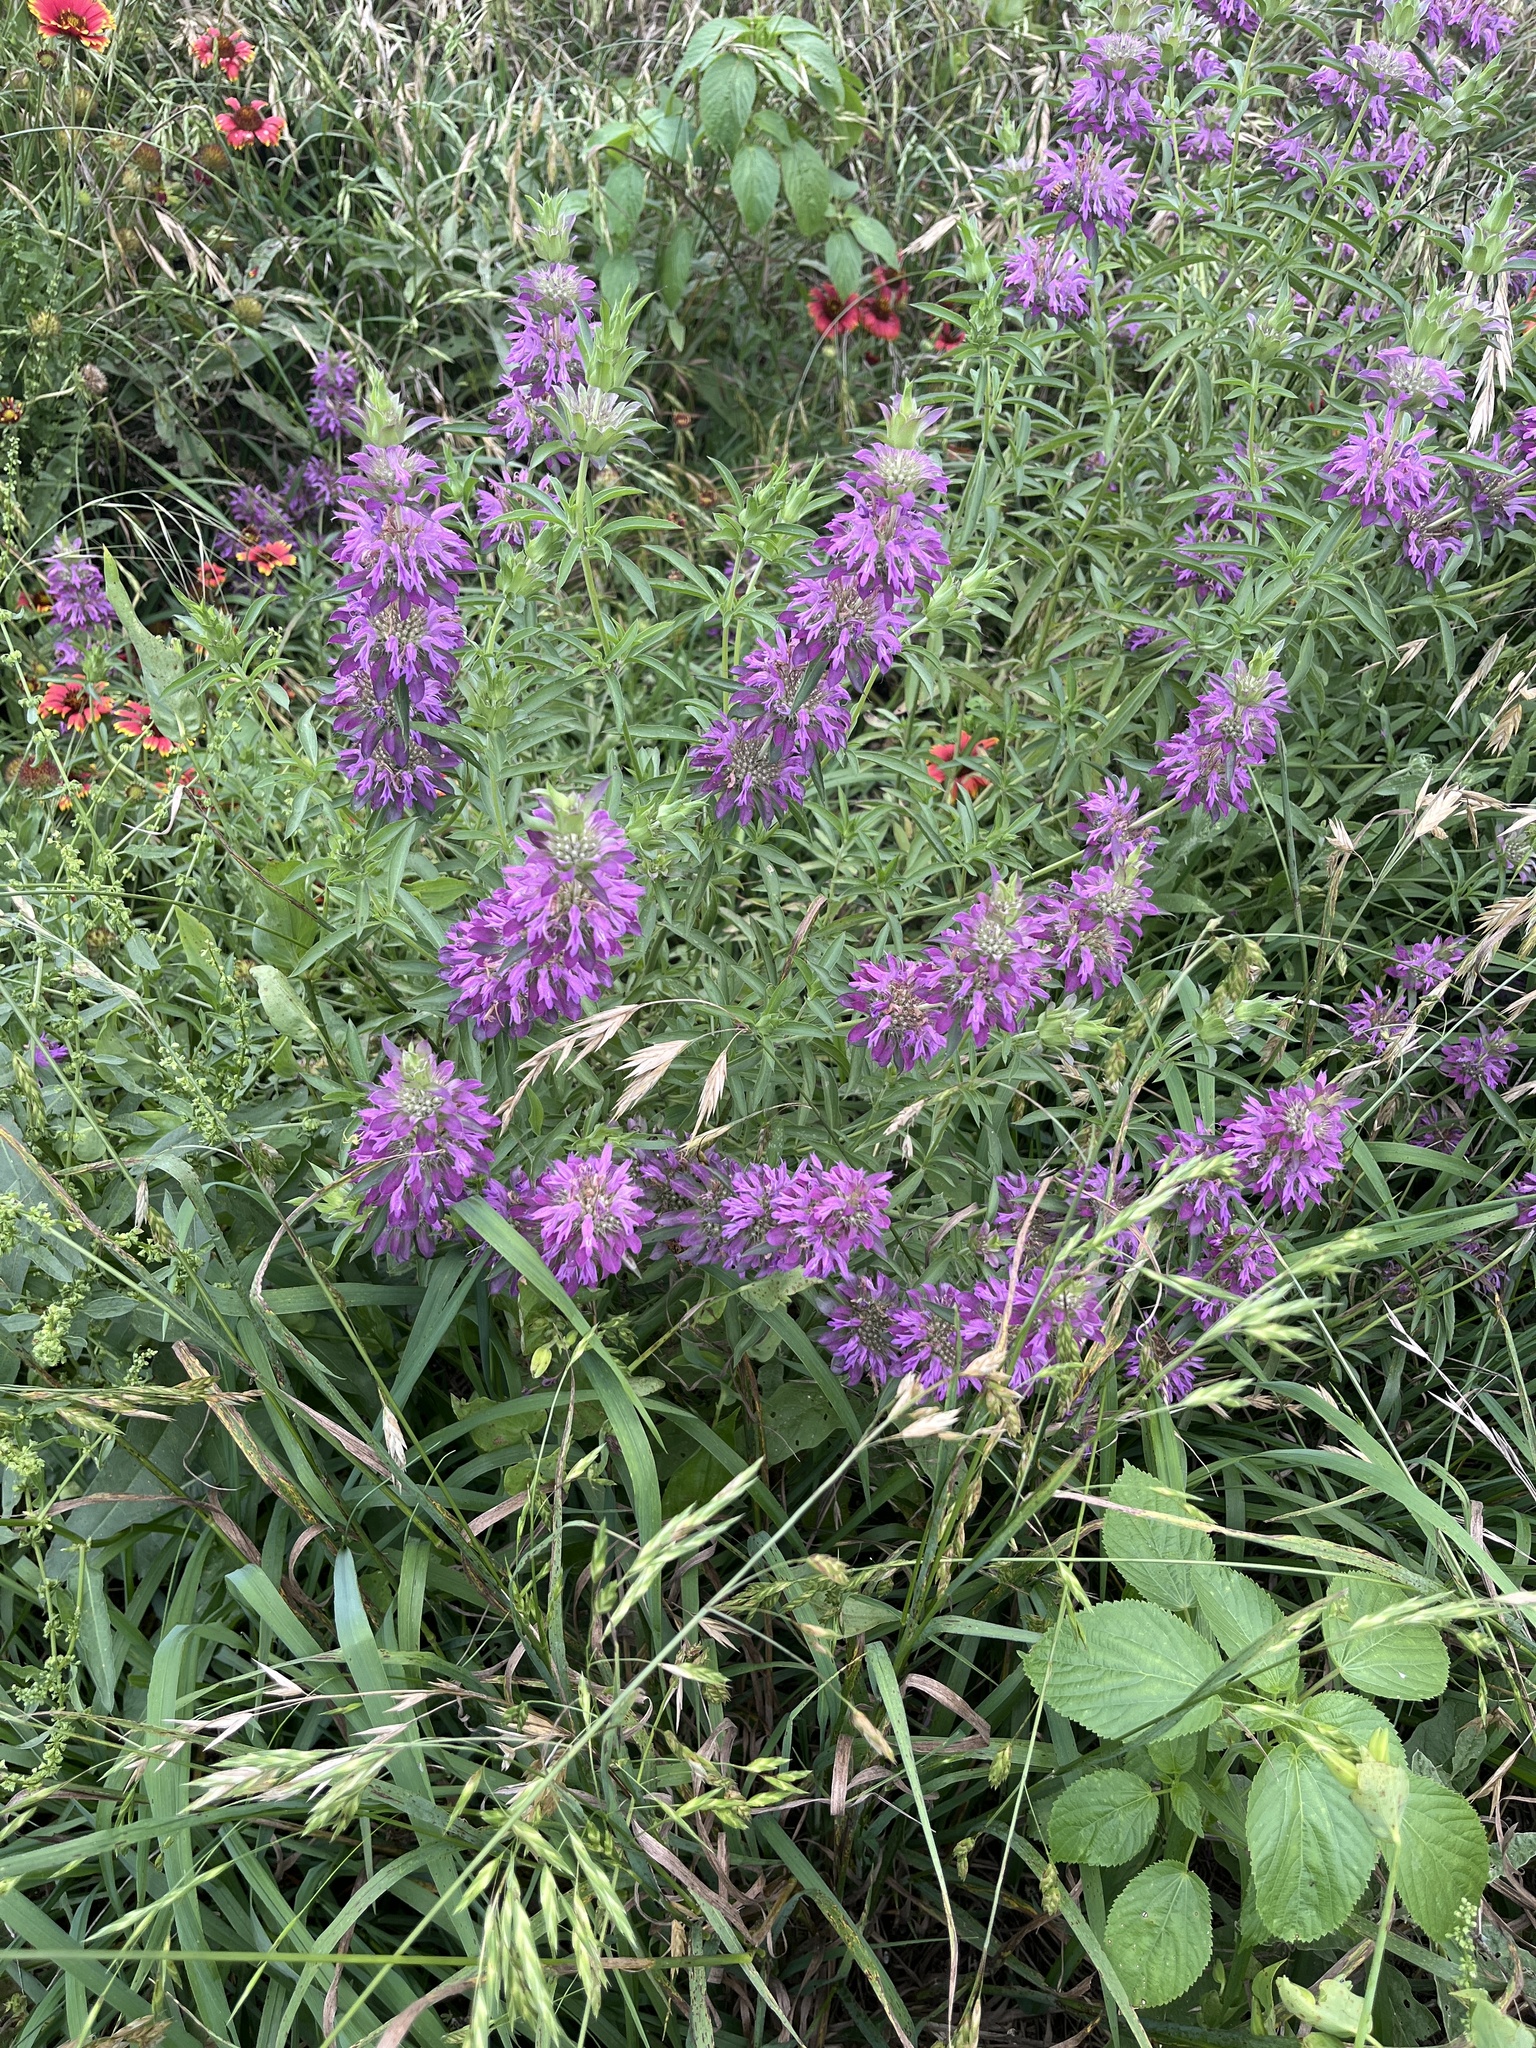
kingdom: Plantae
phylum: Tracheophyta
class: Magnoliopsida
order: Lamiales
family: Lamiaceae
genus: Monarda
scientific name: Monarda citriodora
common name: Lemon beebalm
